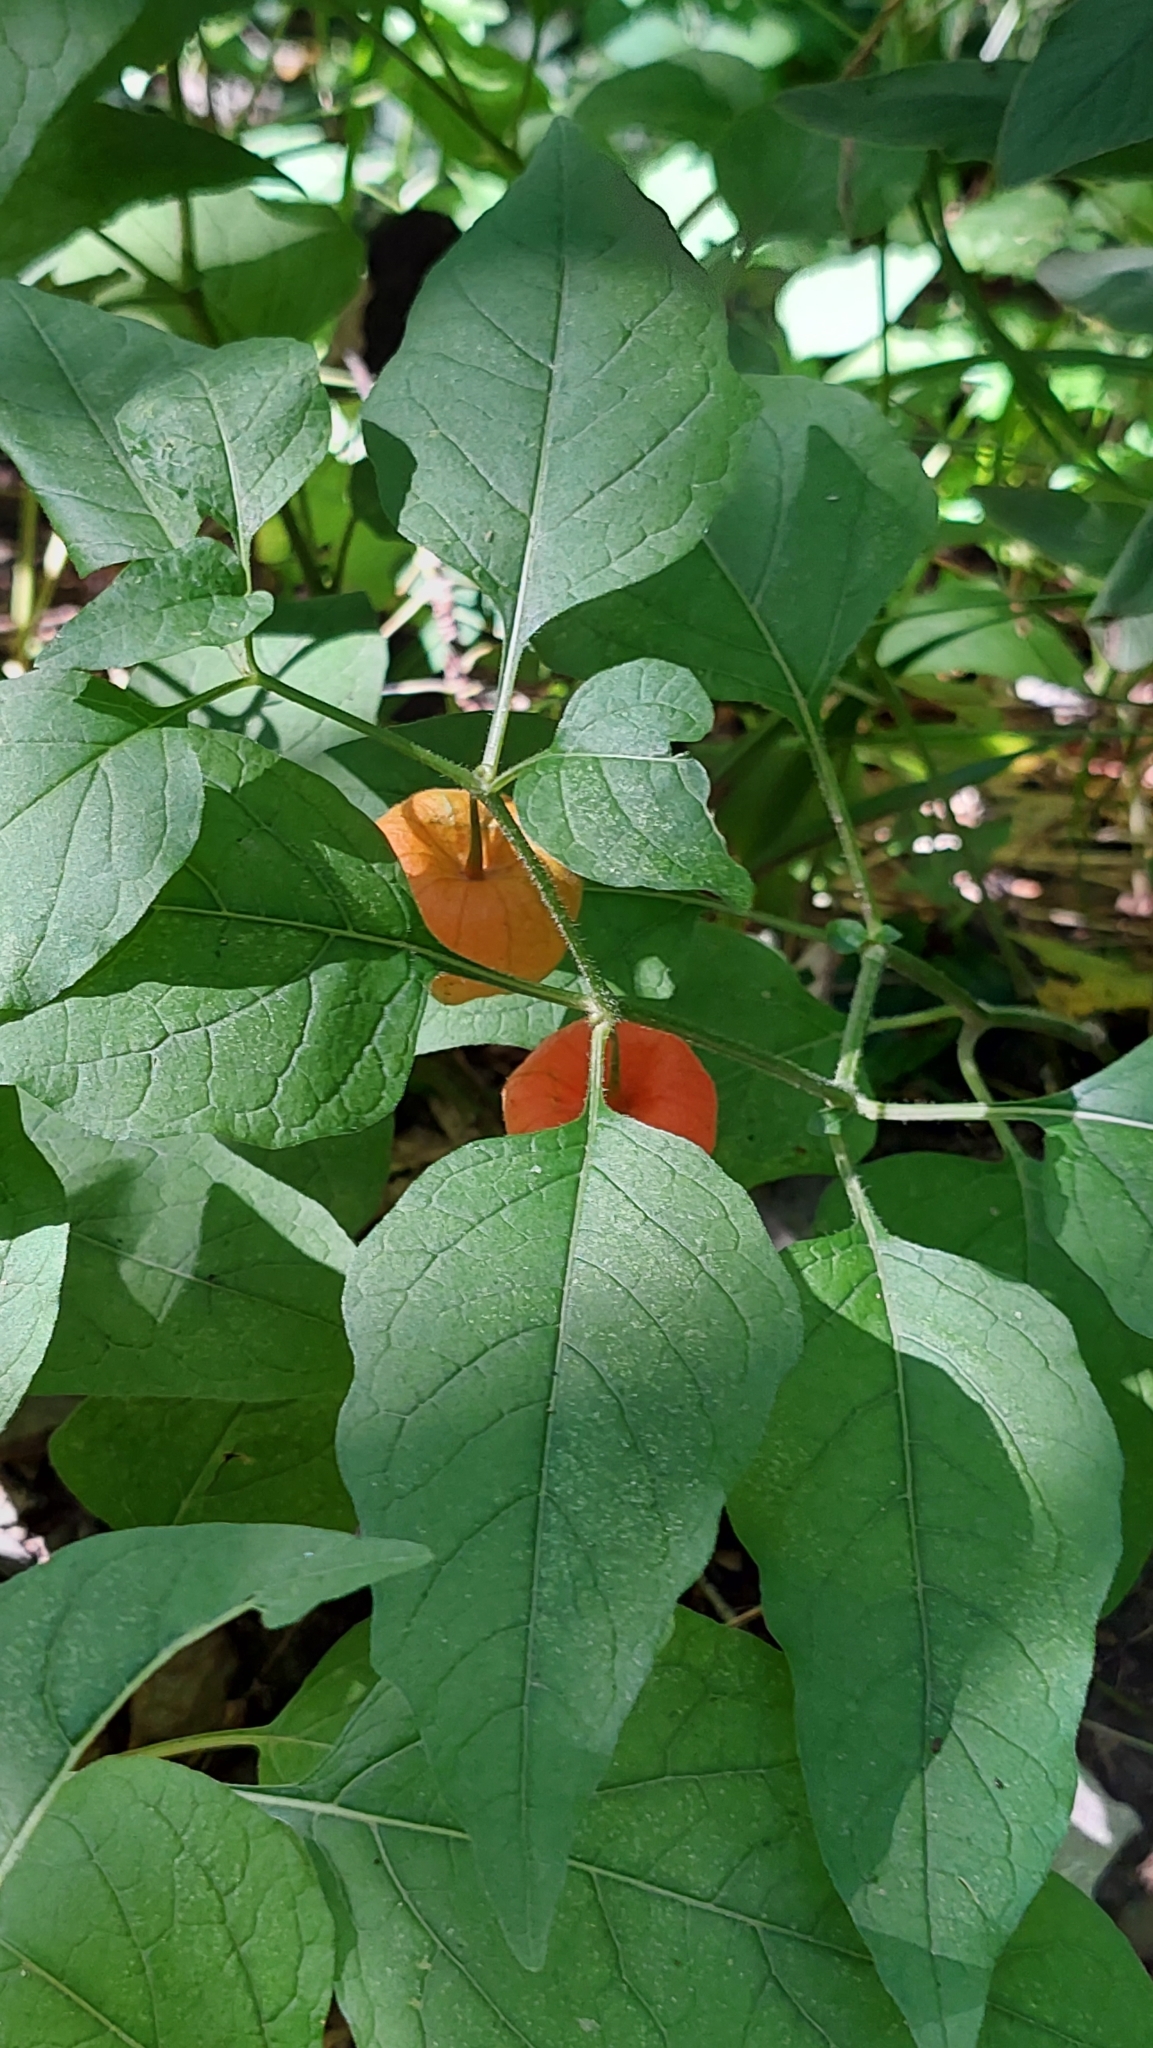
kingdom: Plantae
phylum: Tracheophyta
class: Magnoliopsida
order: Solanales
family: Solanaceae
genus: Alkekengi
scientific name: Alkekengi officinarum
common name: Japanese-lantern
